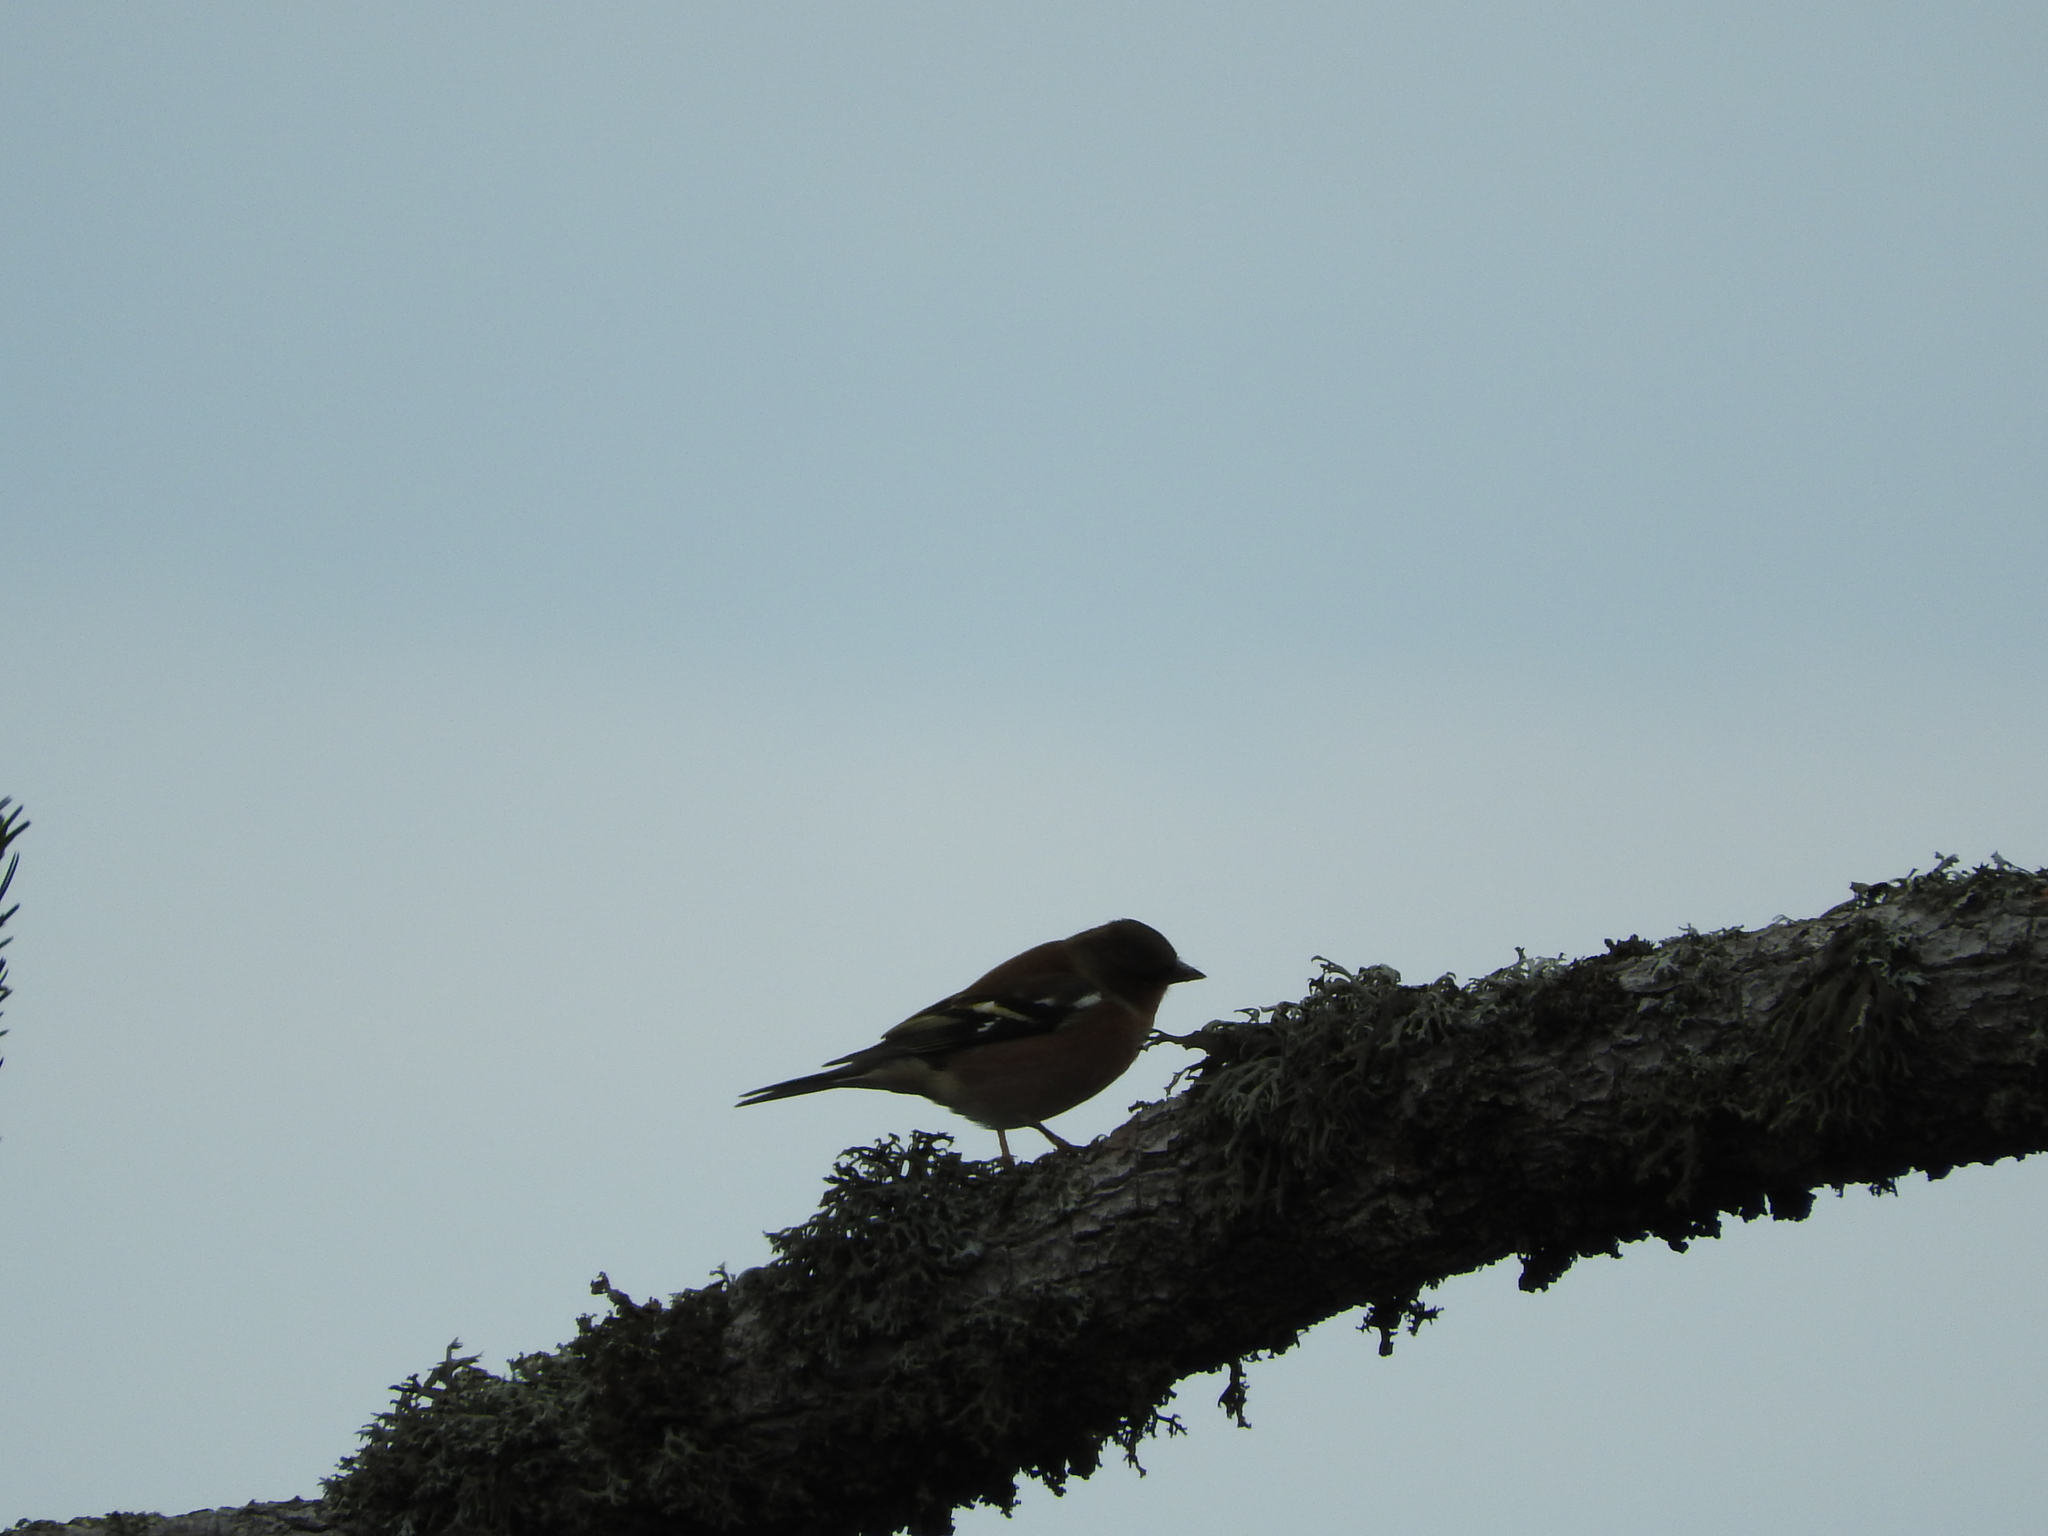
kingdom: Animalia
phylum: Chordata
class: Aves
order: Passeriformes
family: Fringillidae
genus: Fringilla
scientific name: Fringilla coelebs
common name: Common chaffinch
